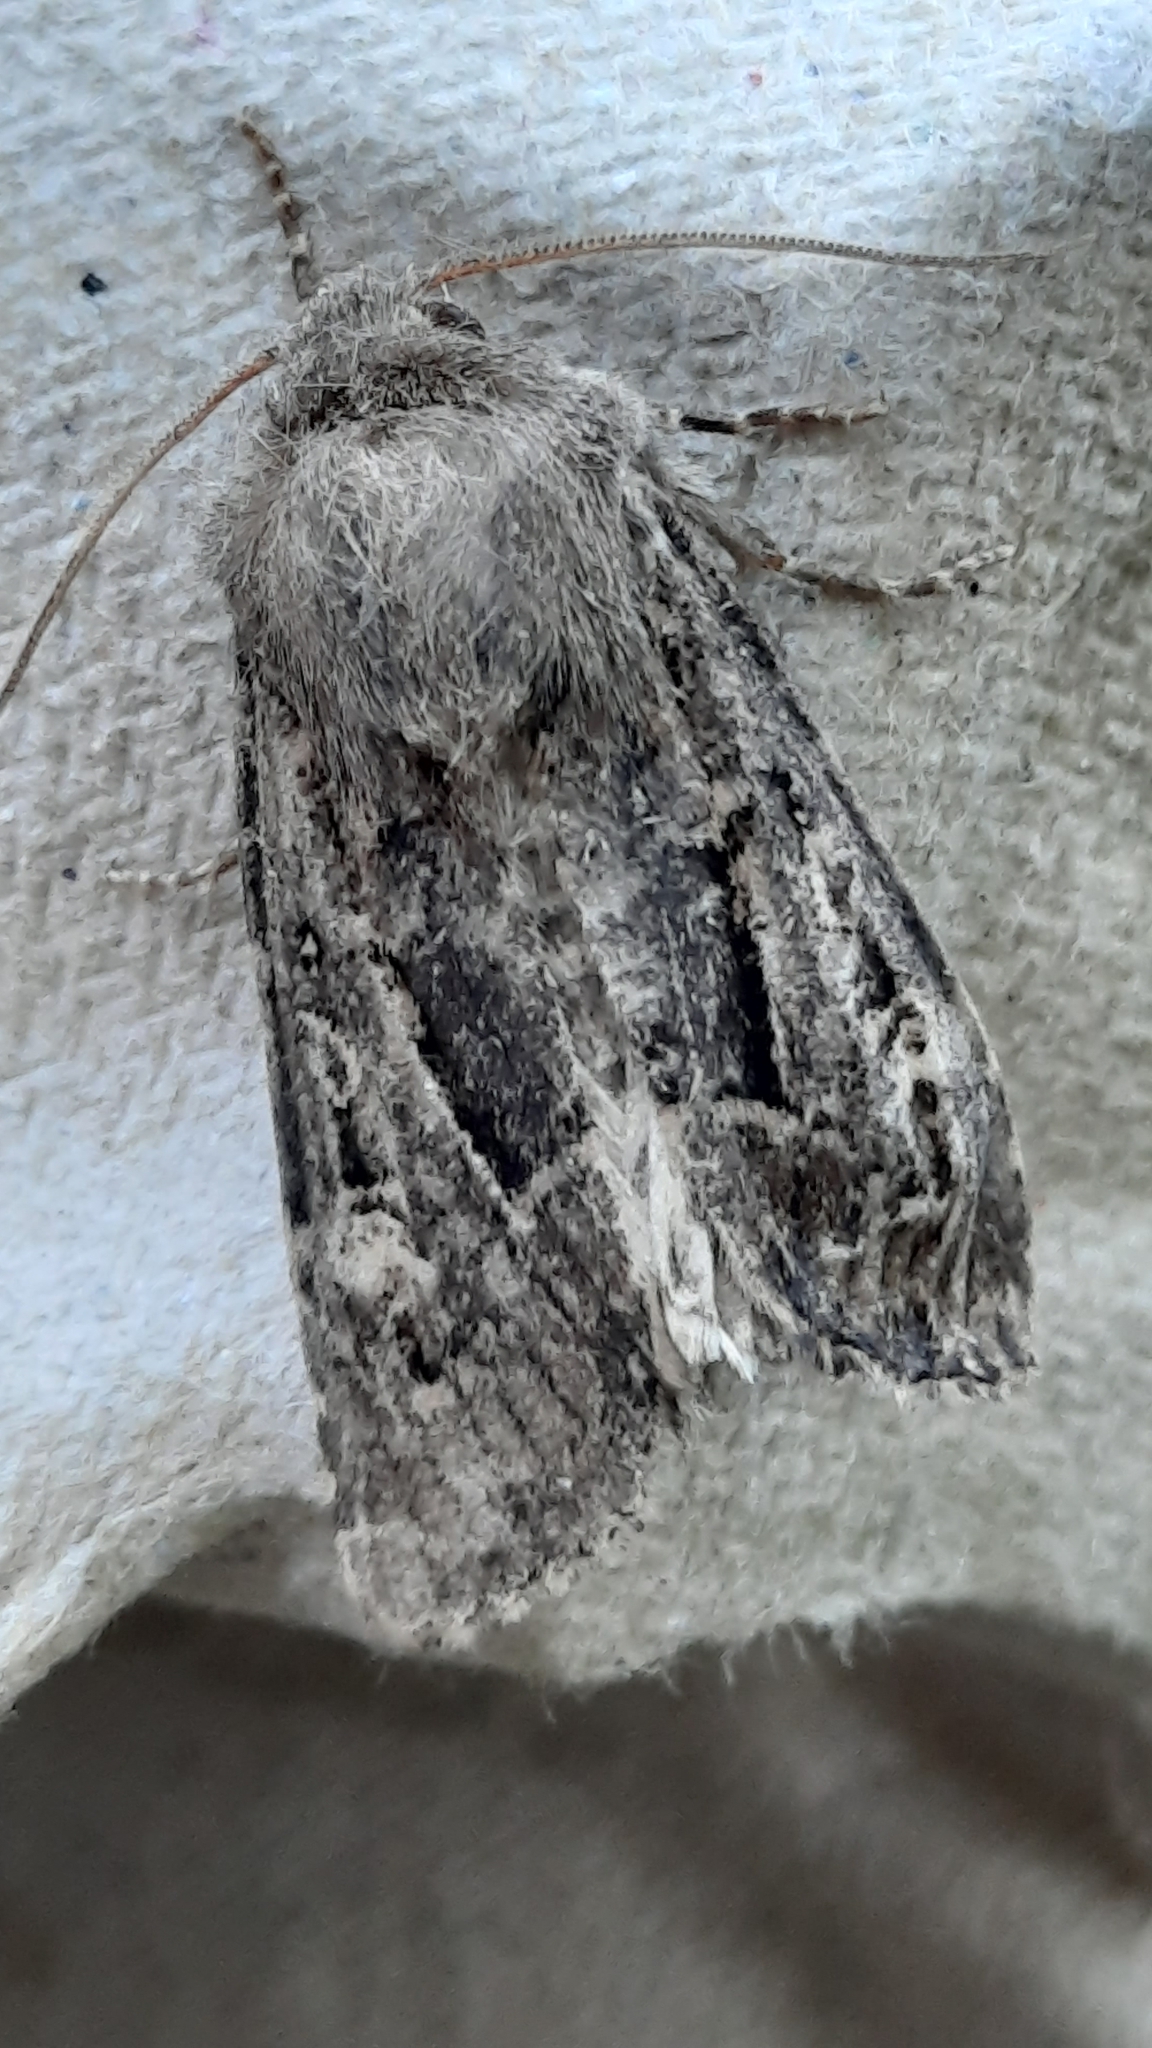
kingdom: Animalia
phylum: Arthropoda
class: Insecta
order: Lepidoptera
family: Noctuidae
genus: Luperina
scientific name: Luperina testacea
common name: Flounced rustic
